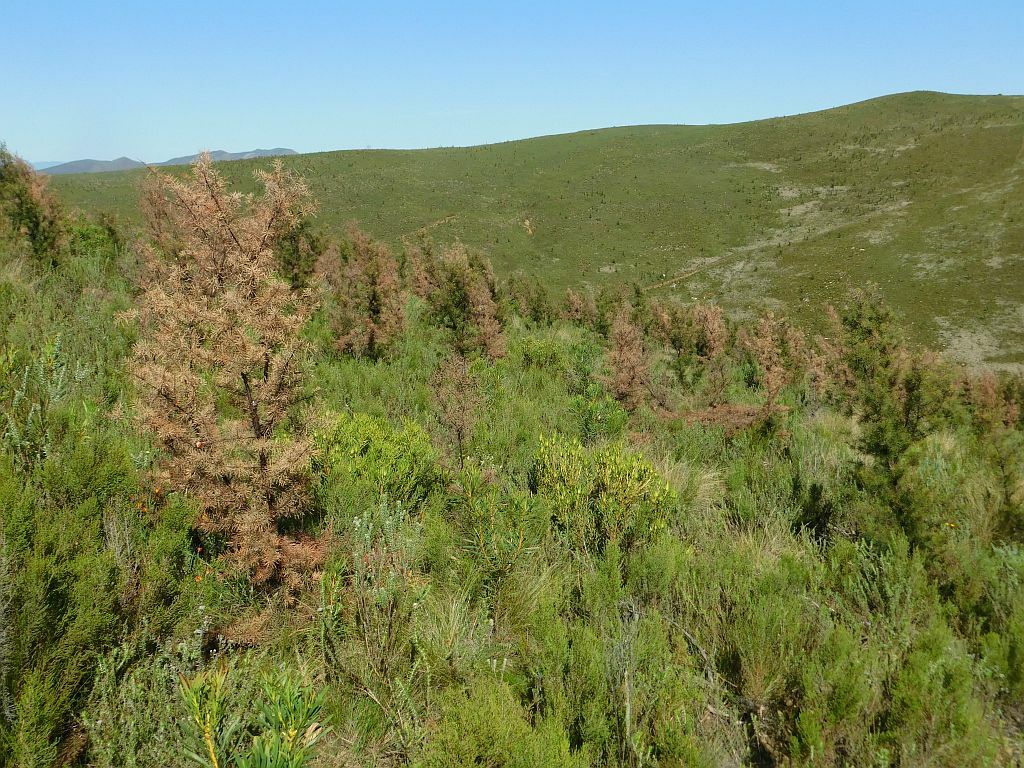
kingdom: Plantae
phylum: Tracheophyta
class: Magnoliopsida
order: Proteales
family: Proteaceae
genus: Hakea
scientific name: Hakea sericea
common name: Needle bush
